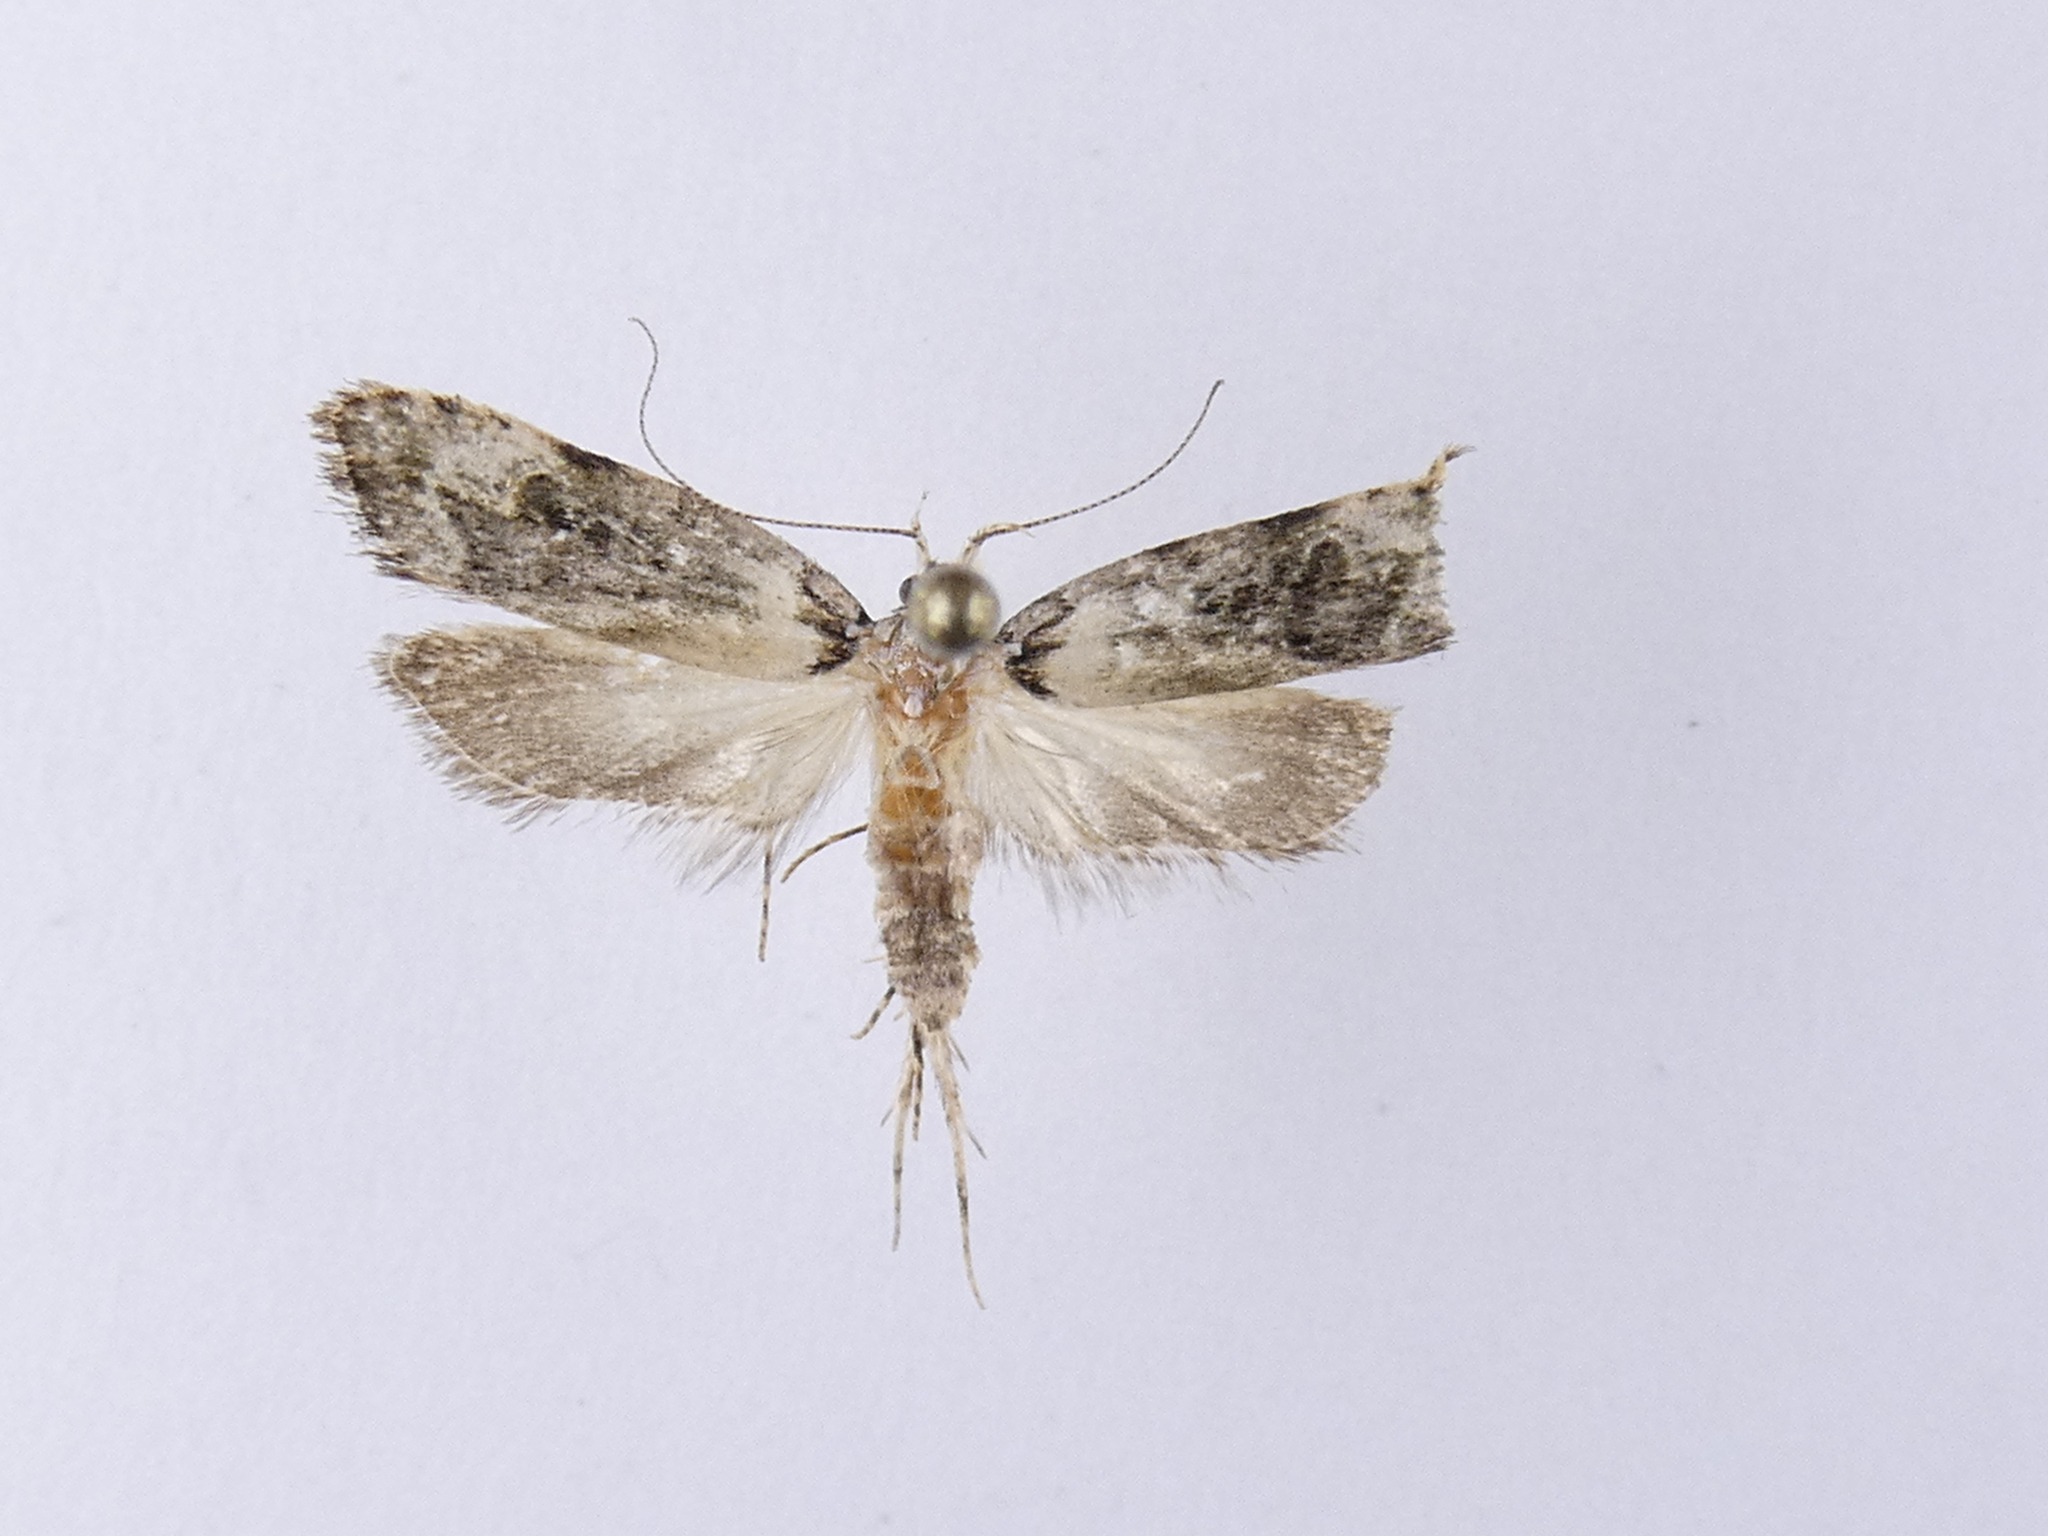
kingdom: Animalia
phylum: Arthropoda
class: Insecta
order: Lepidoptera
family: Oecophoridae
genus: Izatha
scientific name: Izatha prasophyta
